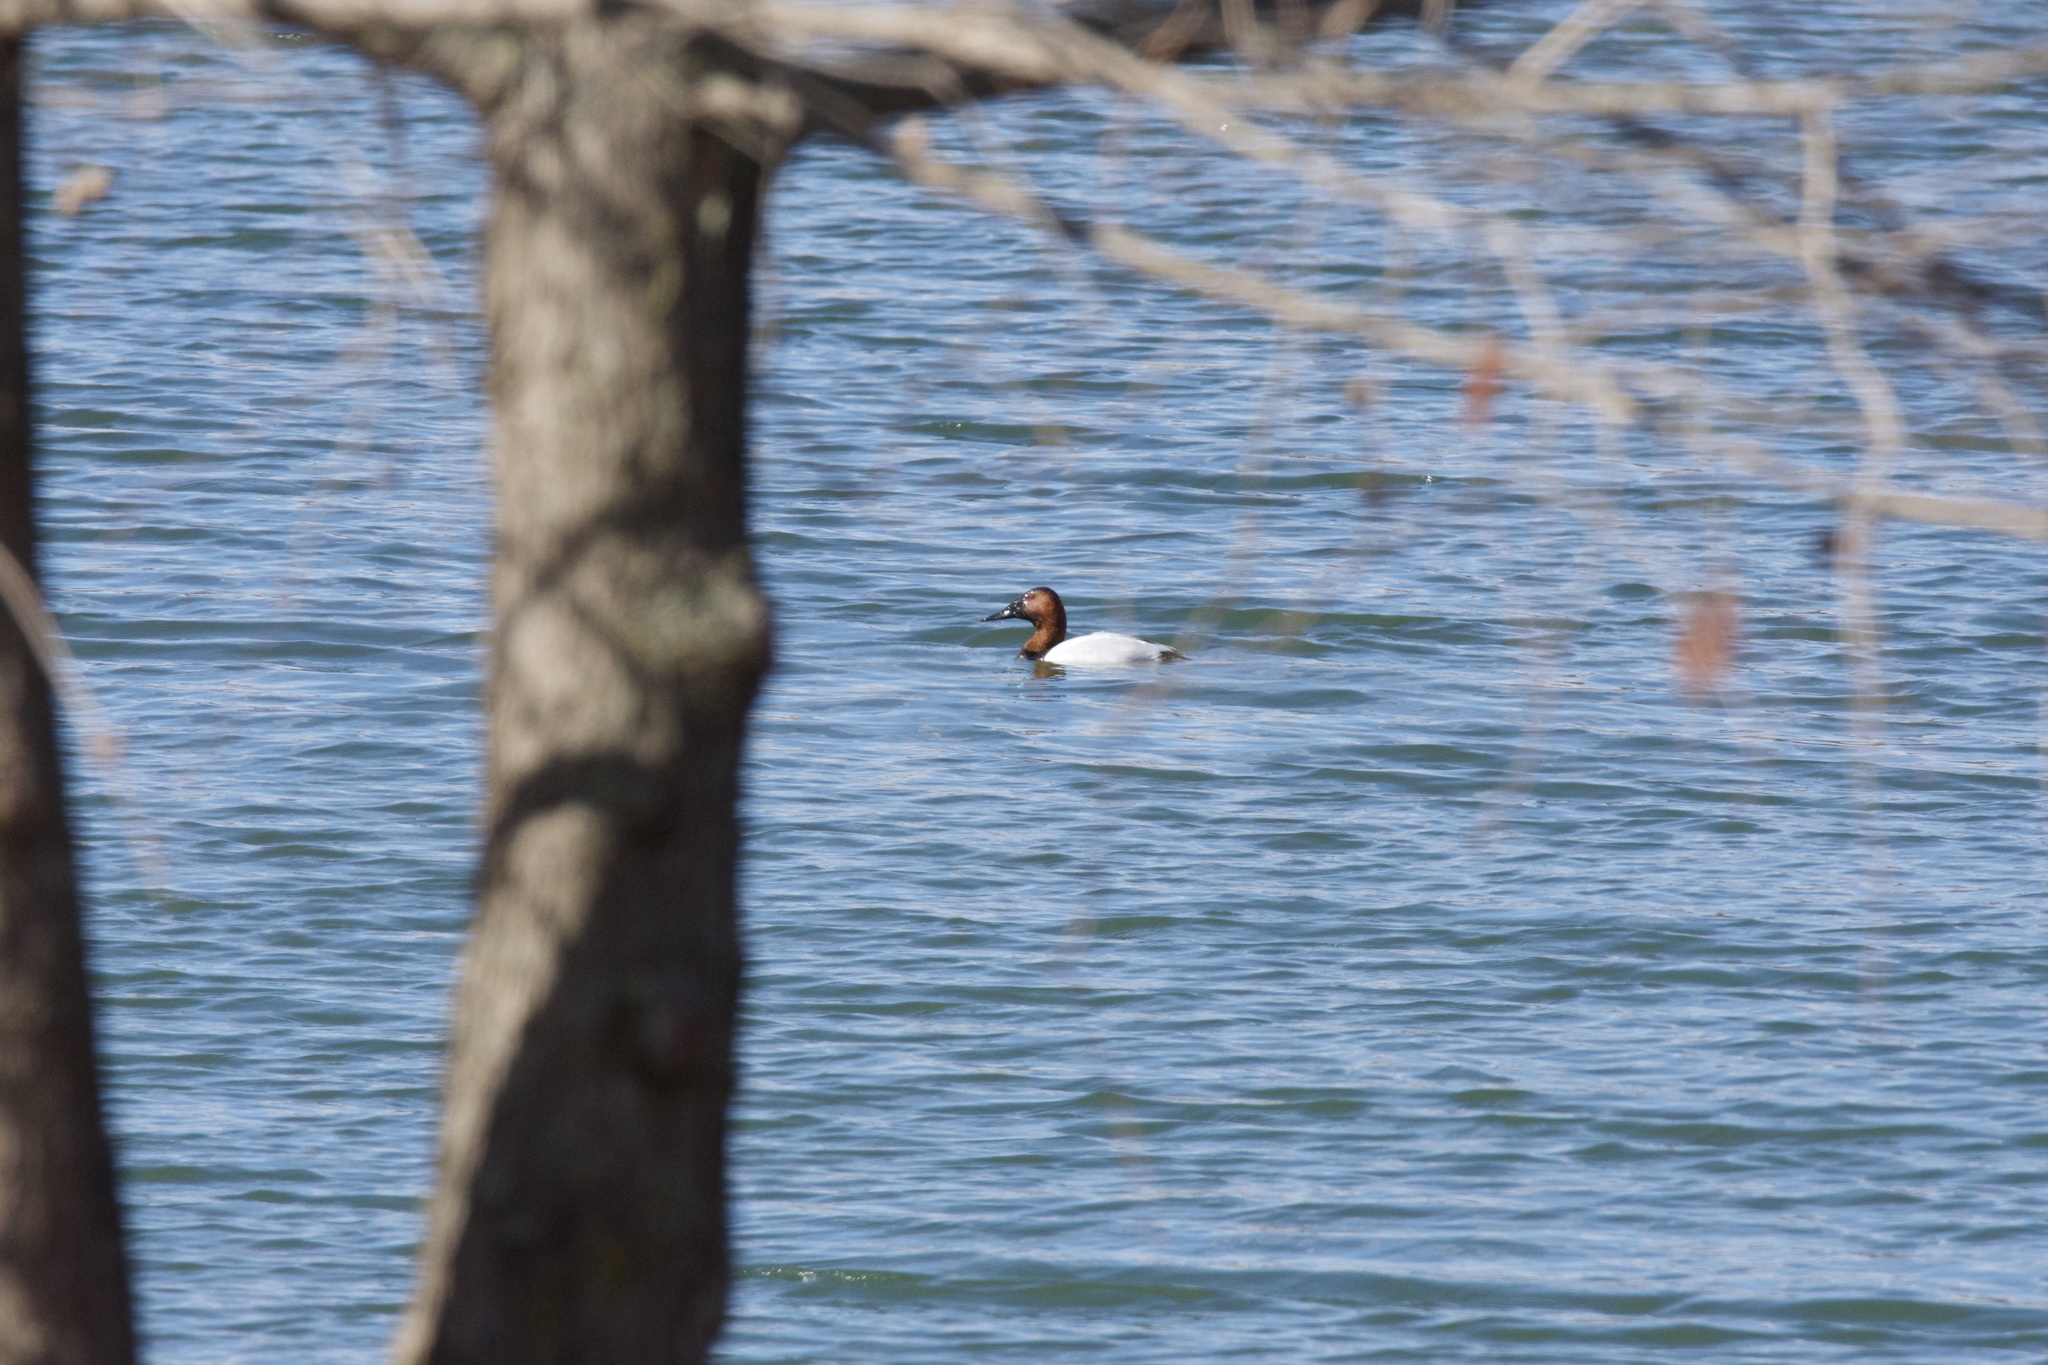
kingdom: Animalia
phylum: Chordata
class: Aves
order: Anseriformes
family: Anatidae
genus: Aythya
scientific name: Aythya valisineria
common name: Canvasback
